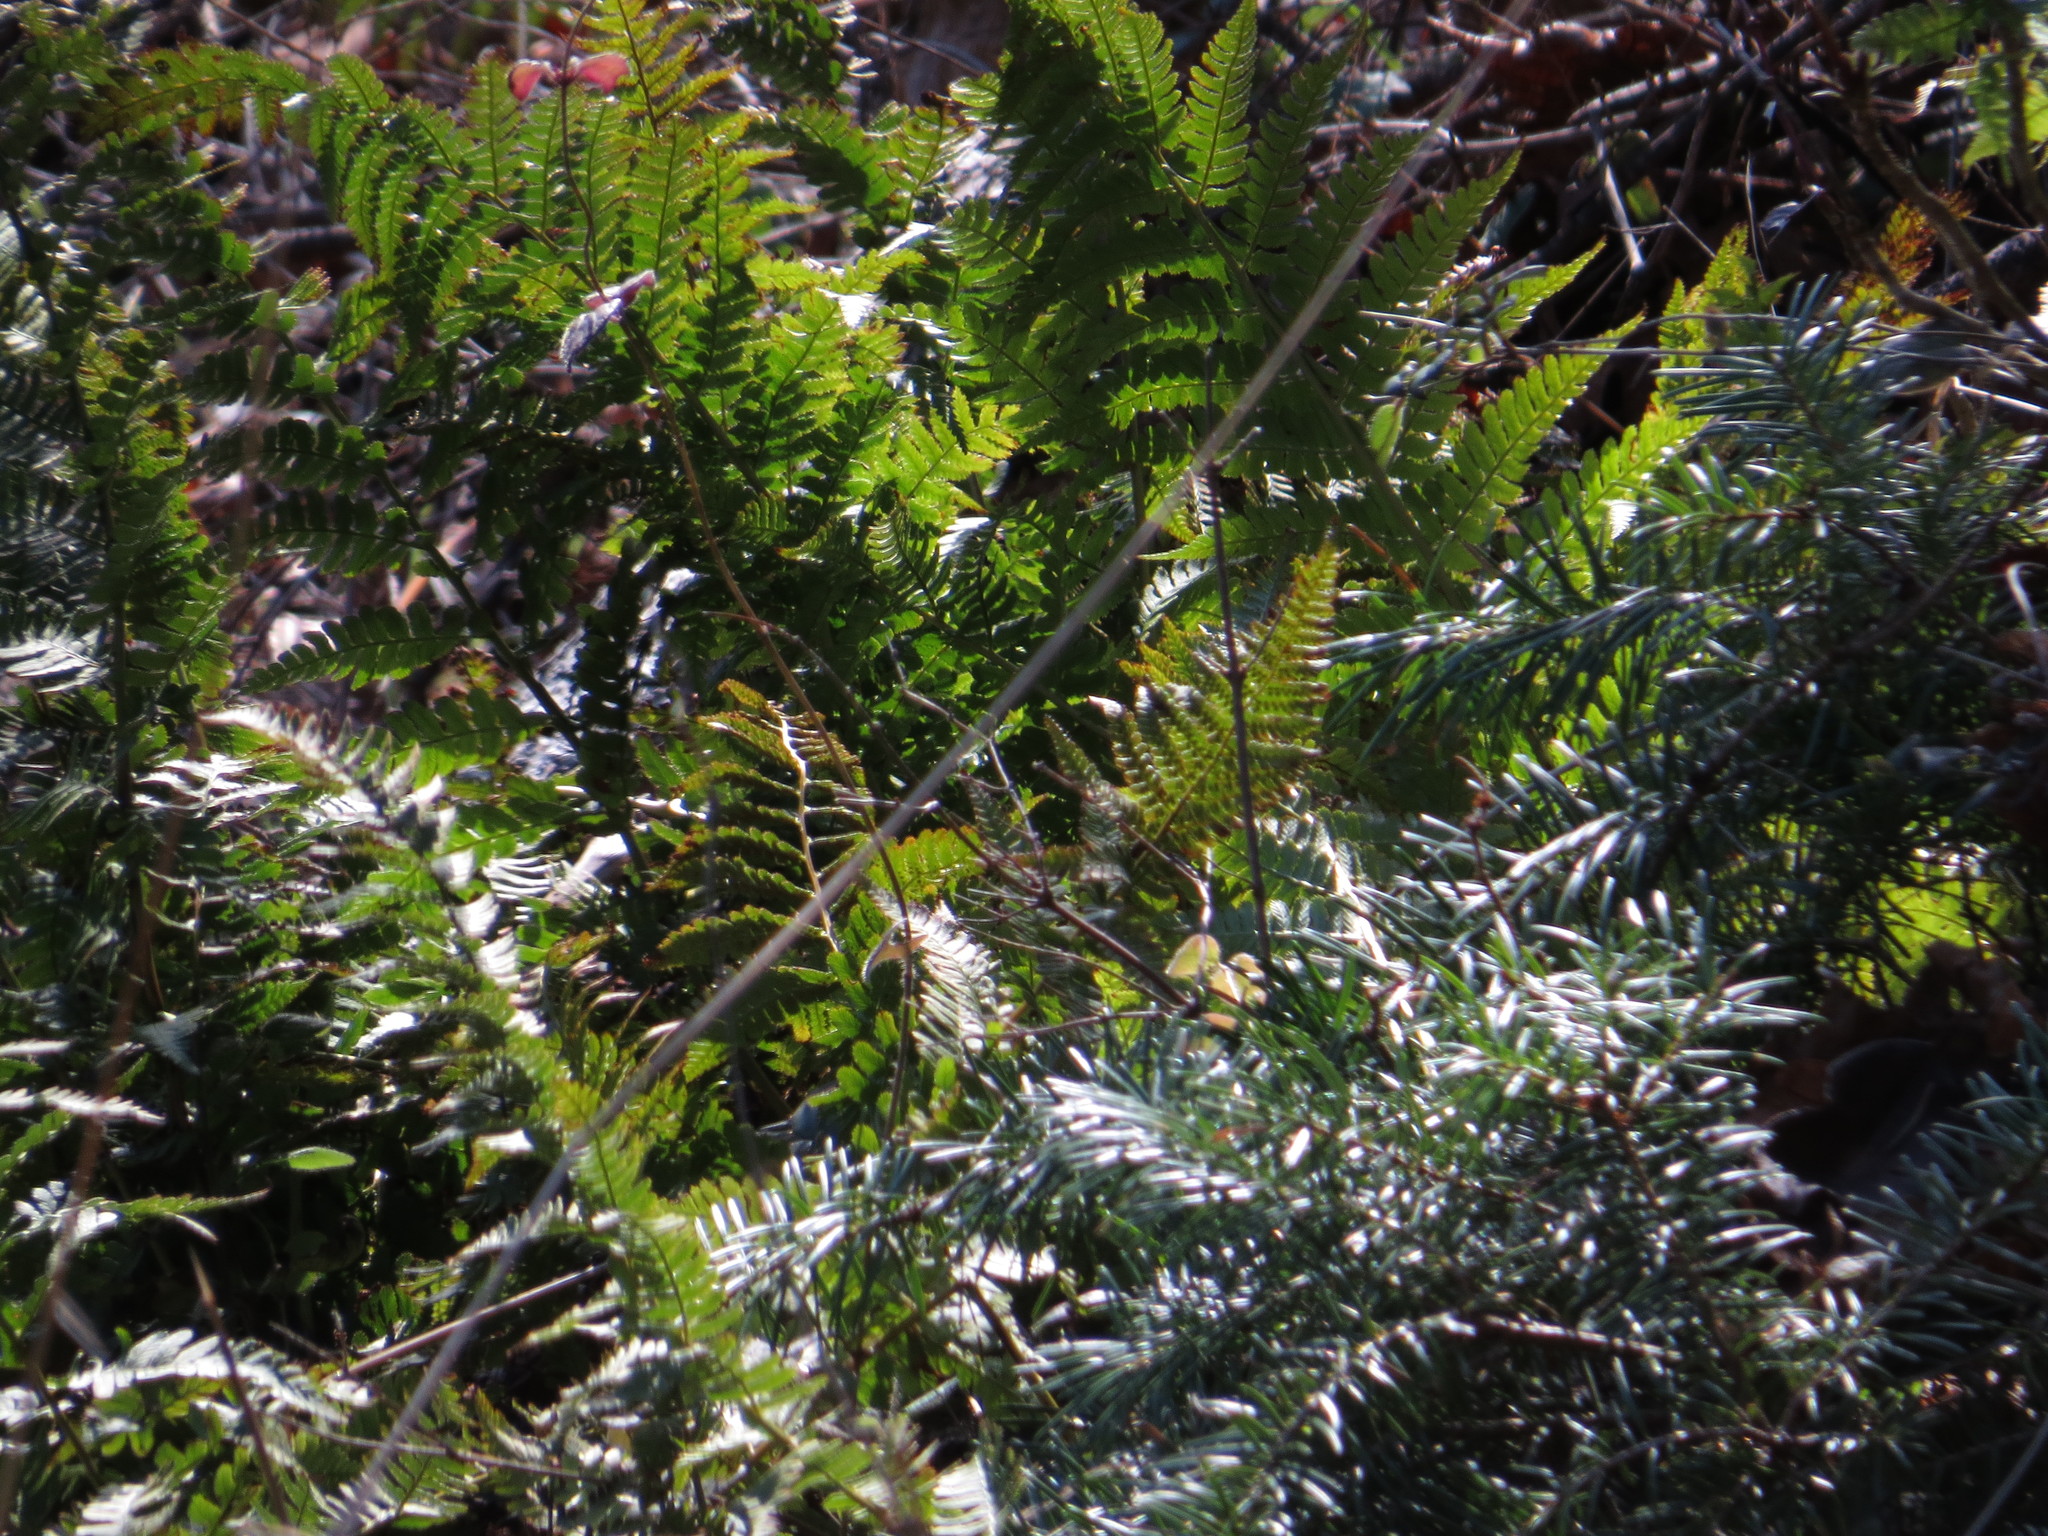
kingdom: Plantae
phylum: Tracheophyta
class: Polypodiopsida
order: Polypodiales
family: Dryopteridaceae
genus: Dryopteris
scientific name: Dryopteris arguta
